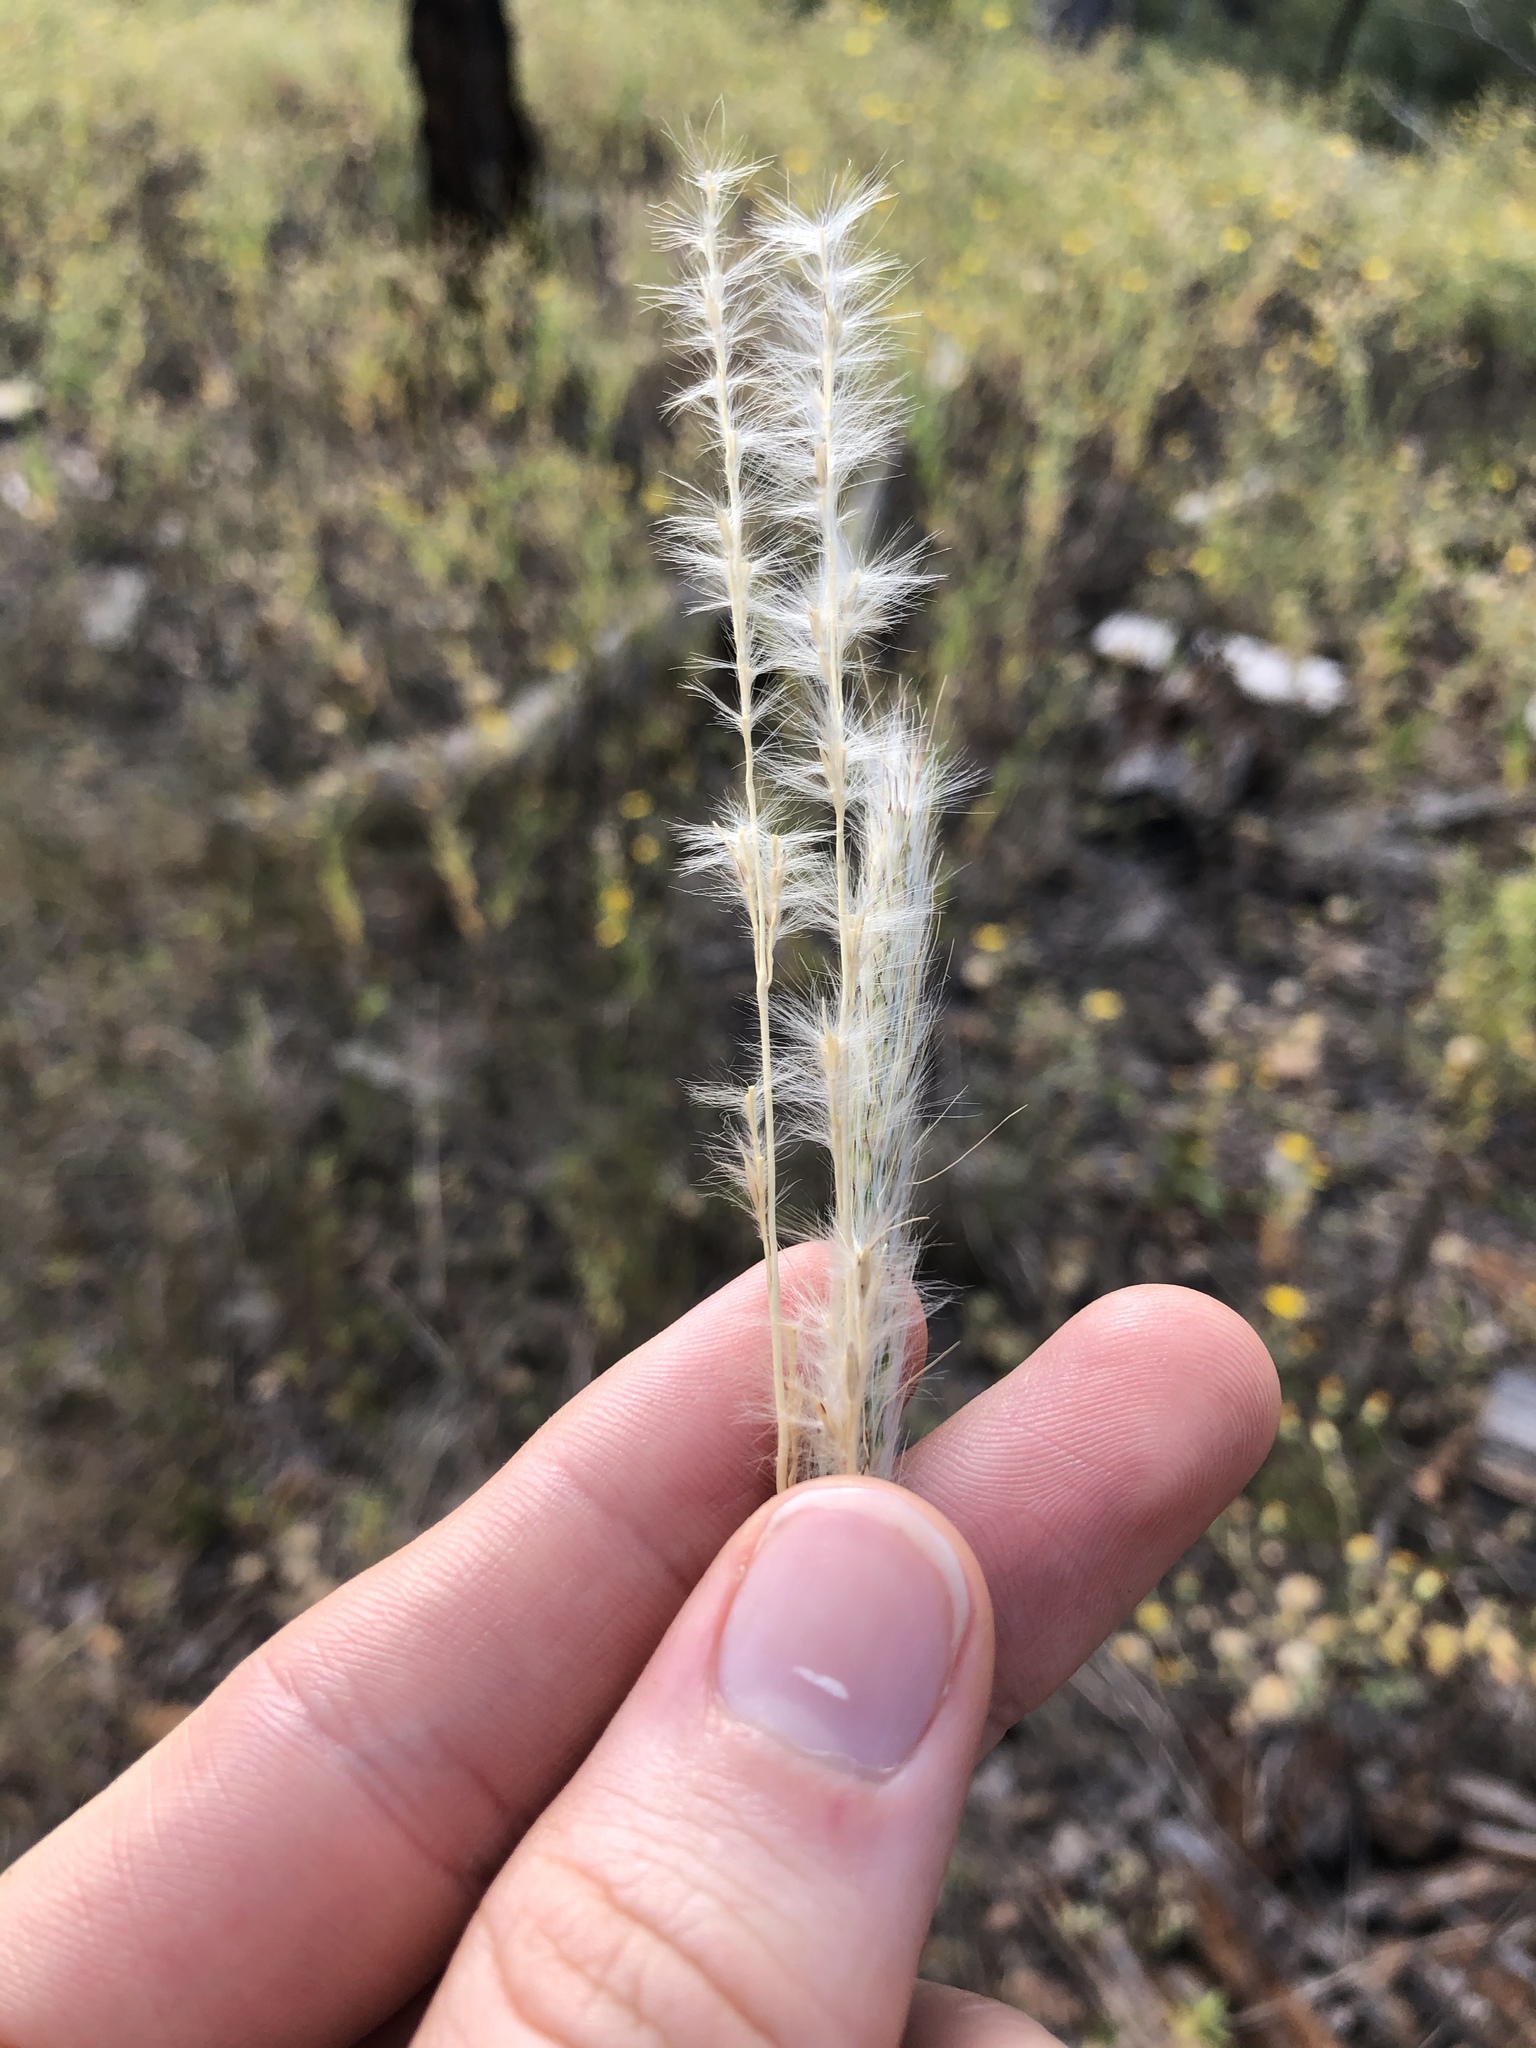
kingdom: Plantae
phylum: Tracheophyta
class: Liliopsida
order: Poales
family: Poaceae
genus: Bothriochloa
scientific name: Bothriochloa torreyana
